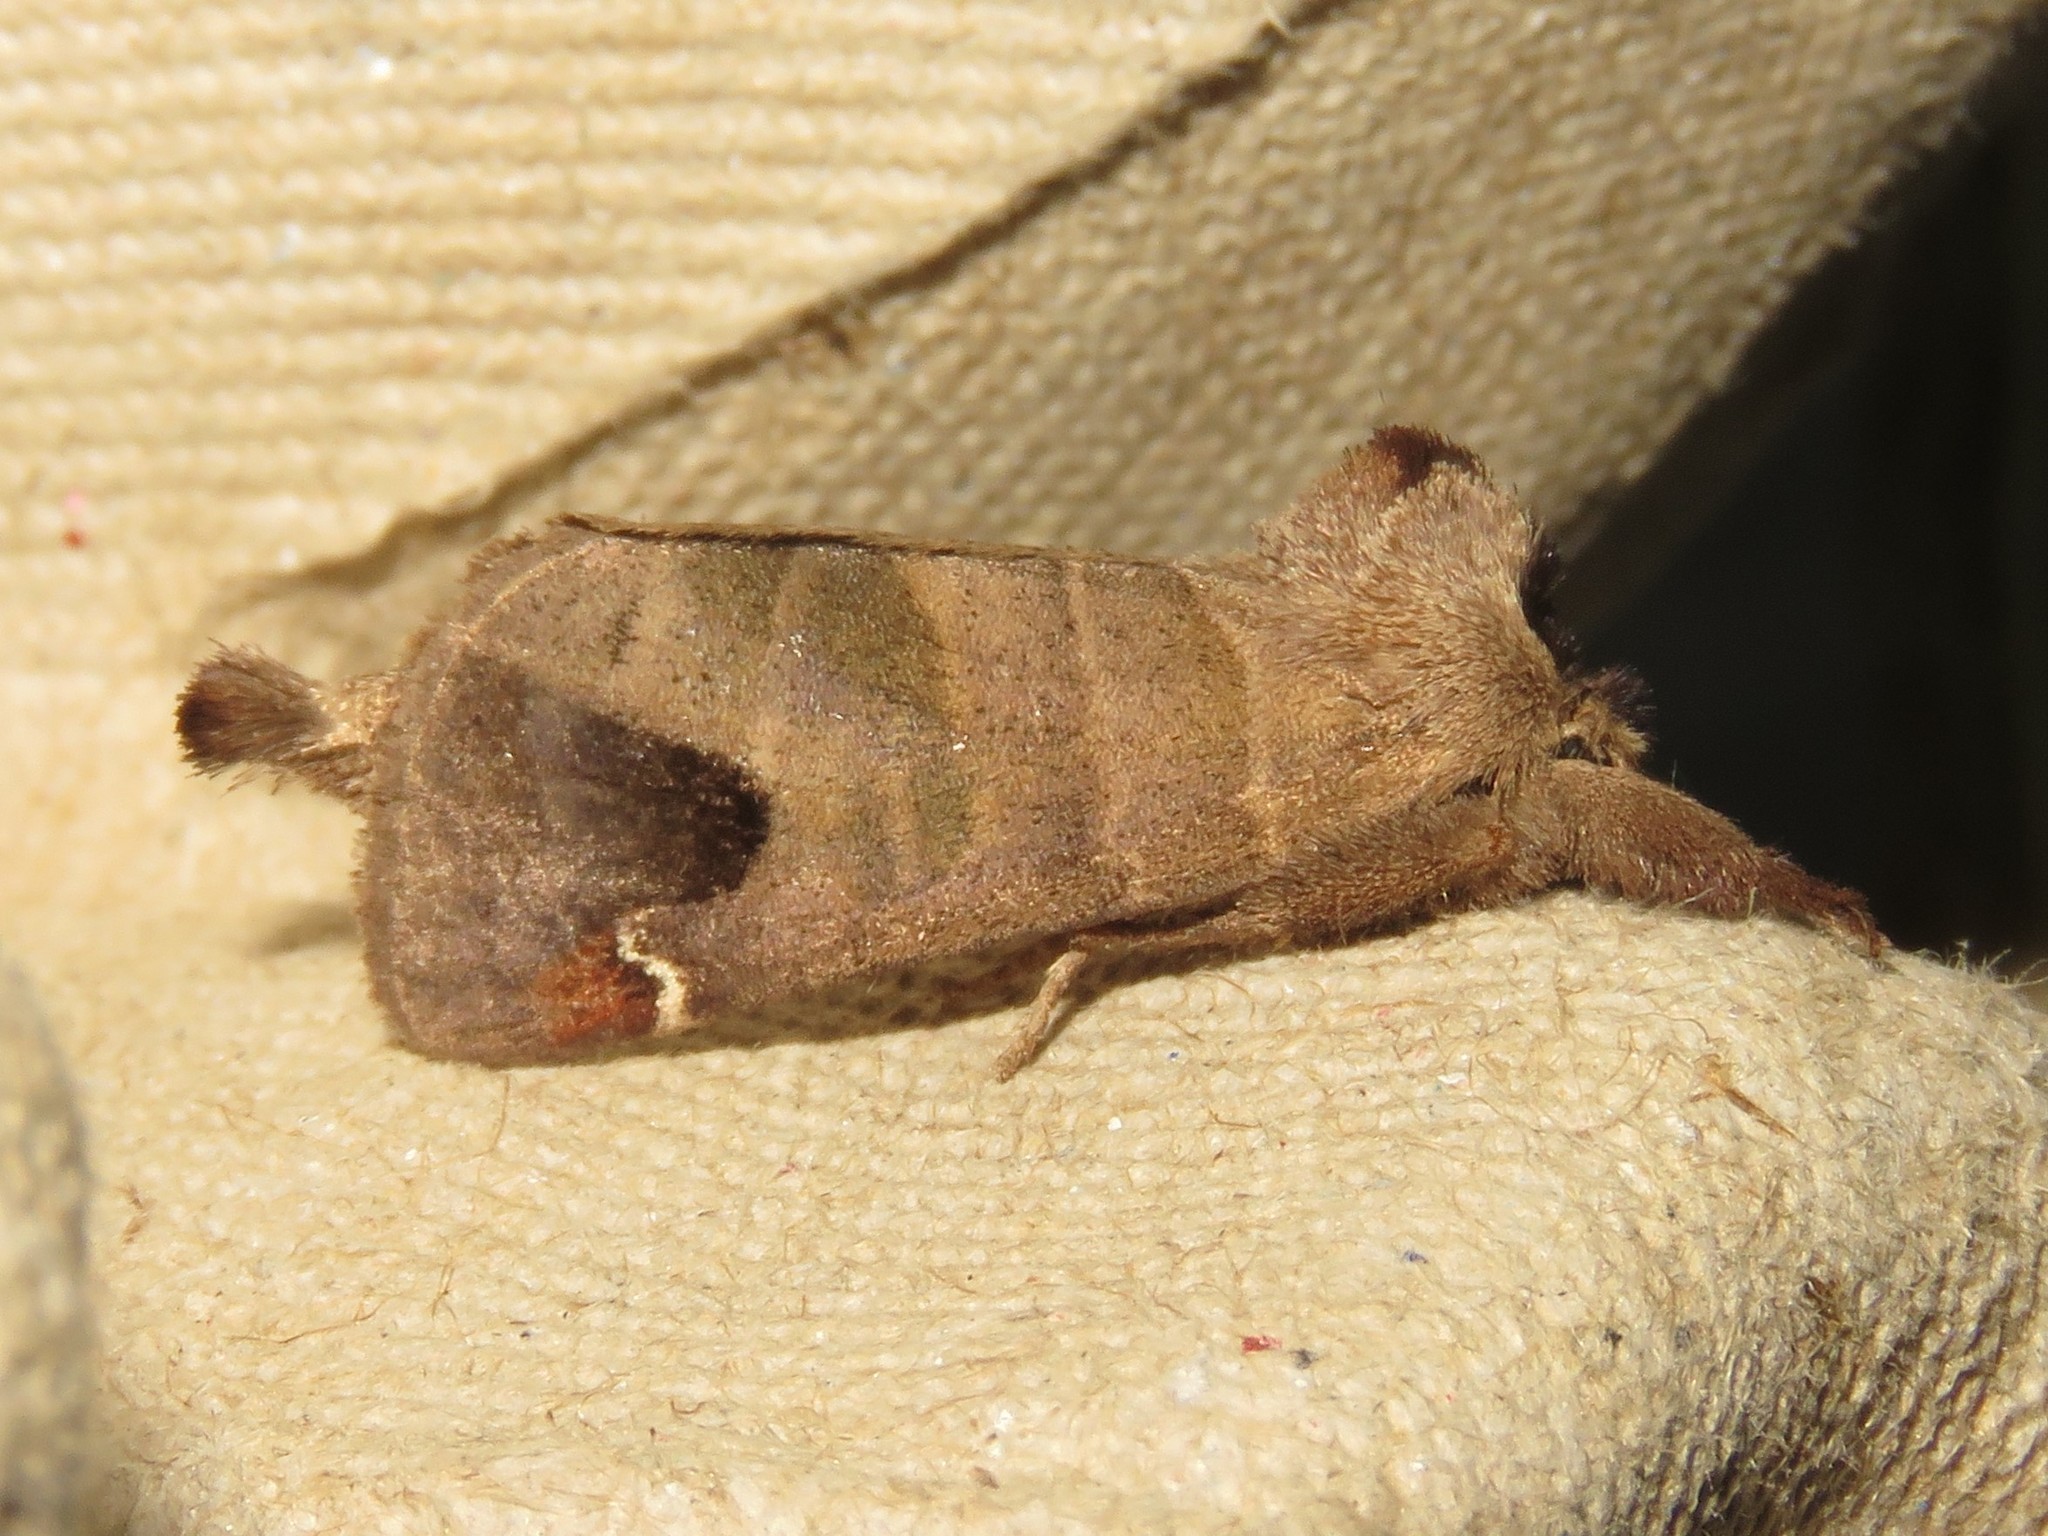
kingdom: Animalia
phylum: Arthropoda
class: Insecta
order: Lepidoptera
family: Notodontidae
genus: Clostera
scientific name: Clostera albosigma
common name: Sigmoid prominent
